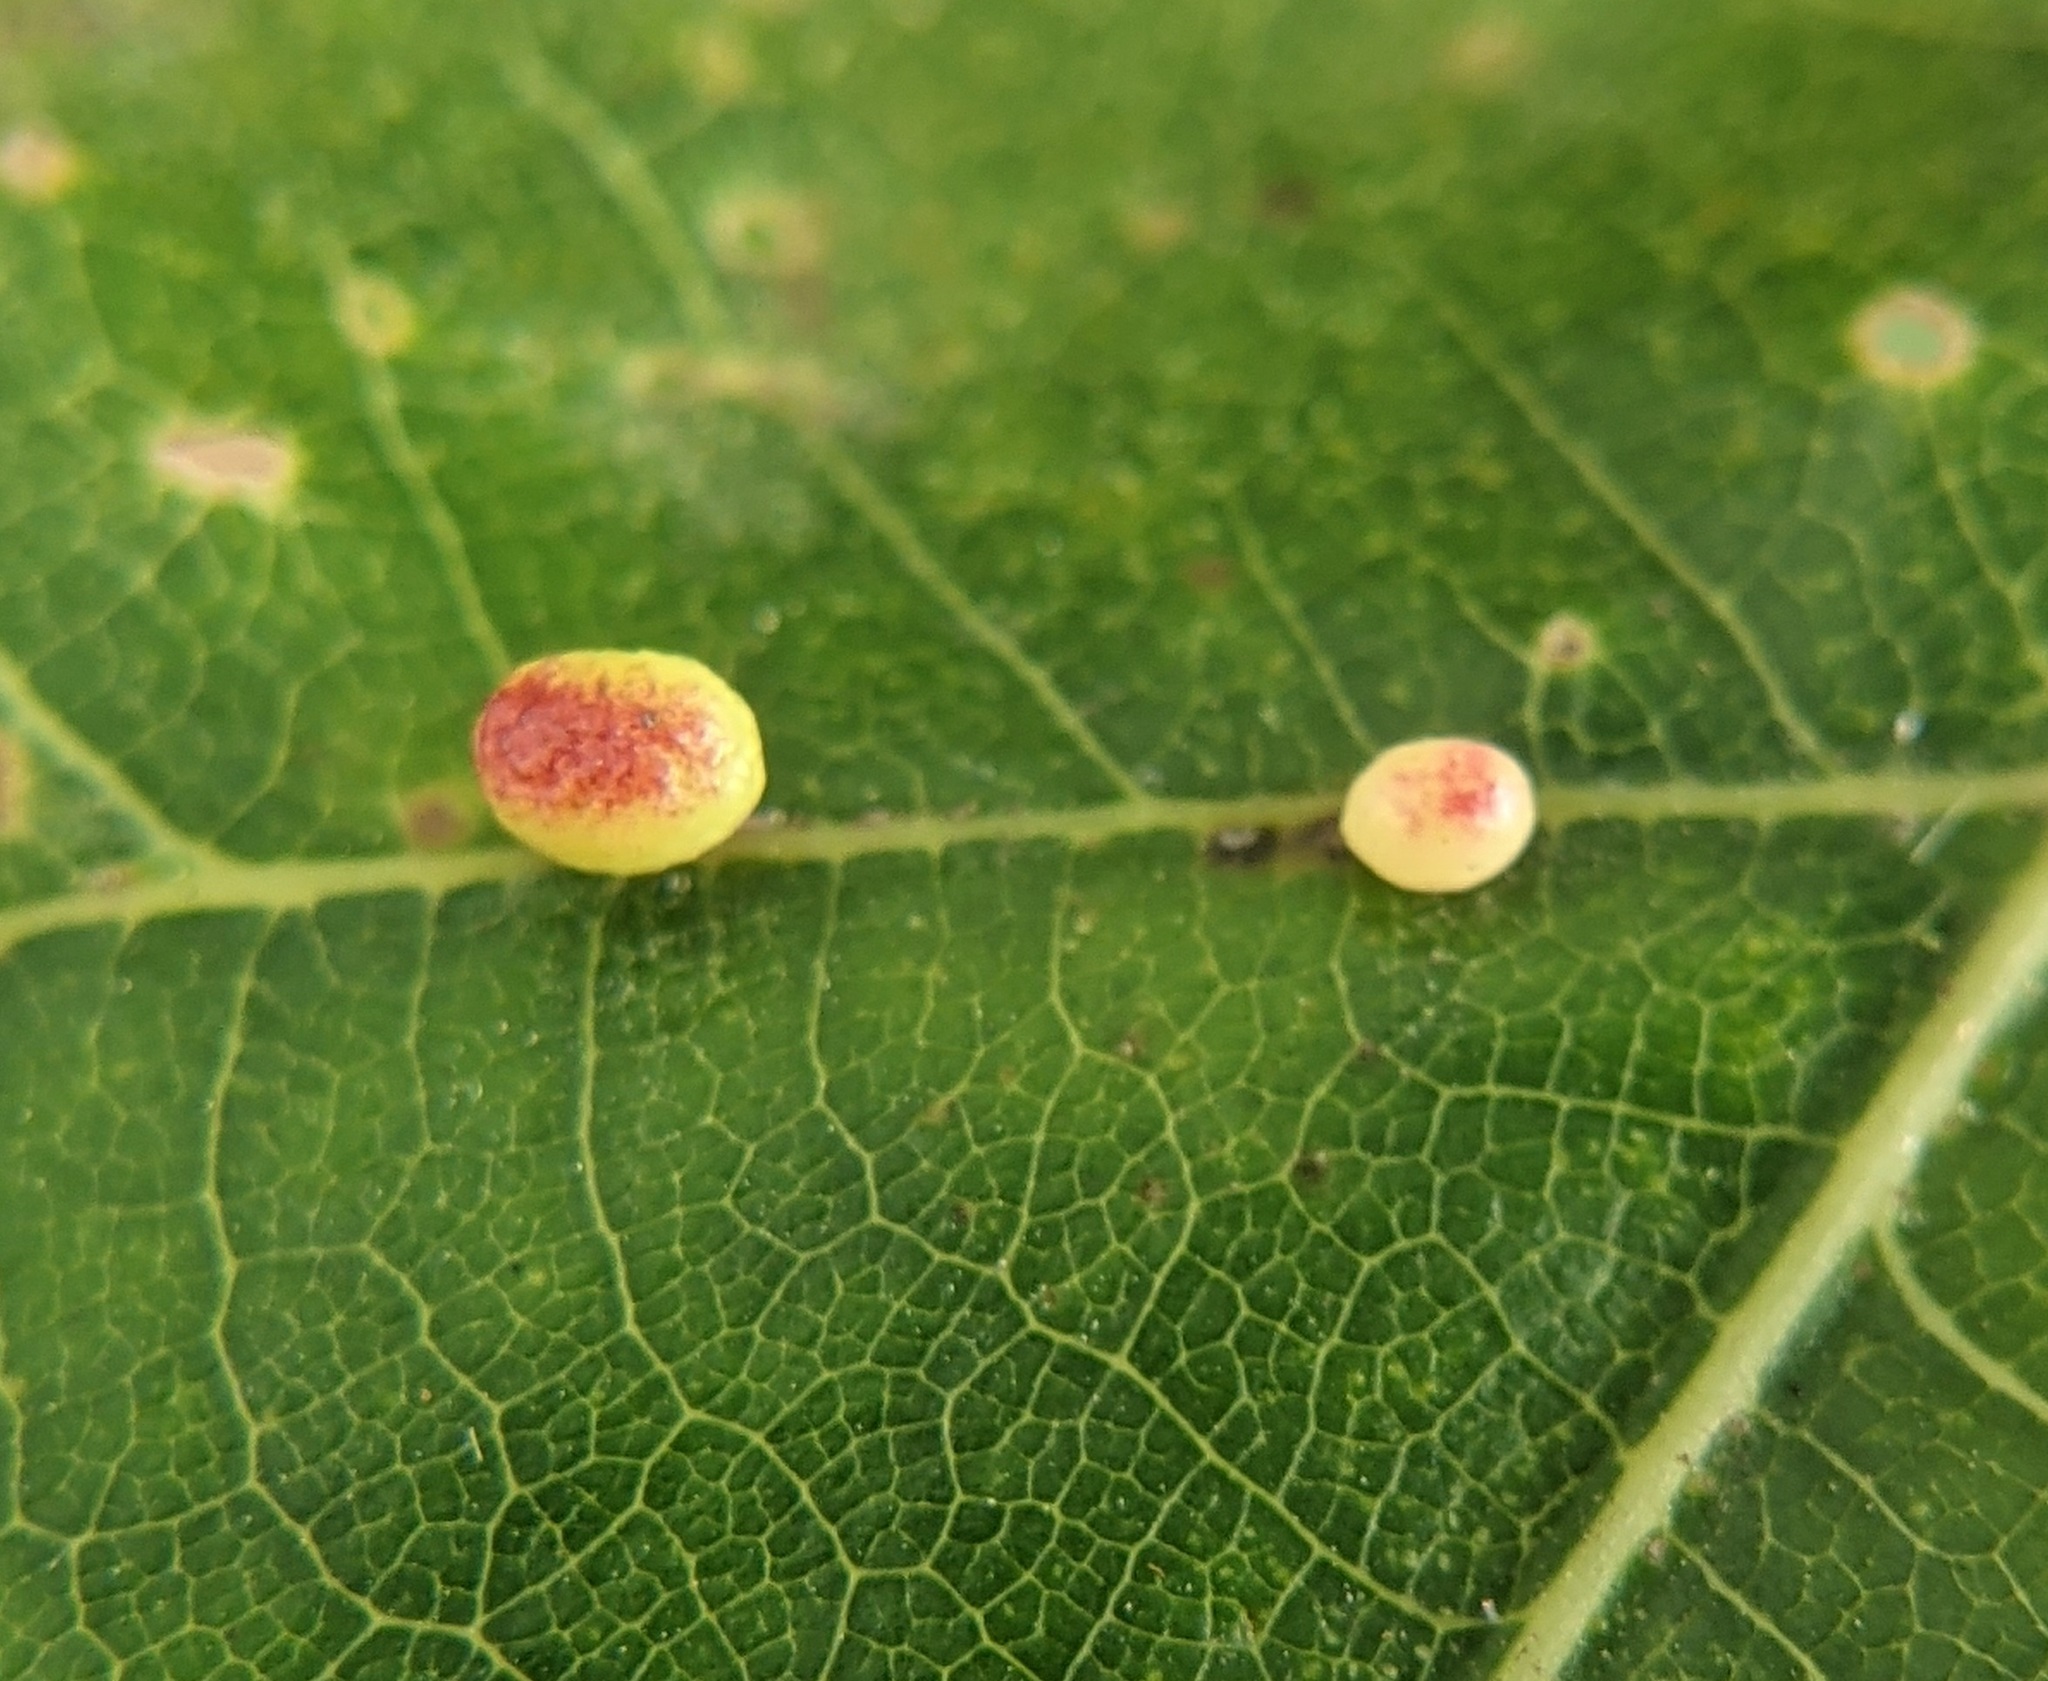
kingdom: Animalia
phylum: Arthropoda
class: Insecta
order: Hymenoptera
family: Cynipidae
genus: Zopheroteras
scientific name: Zopheroteras
